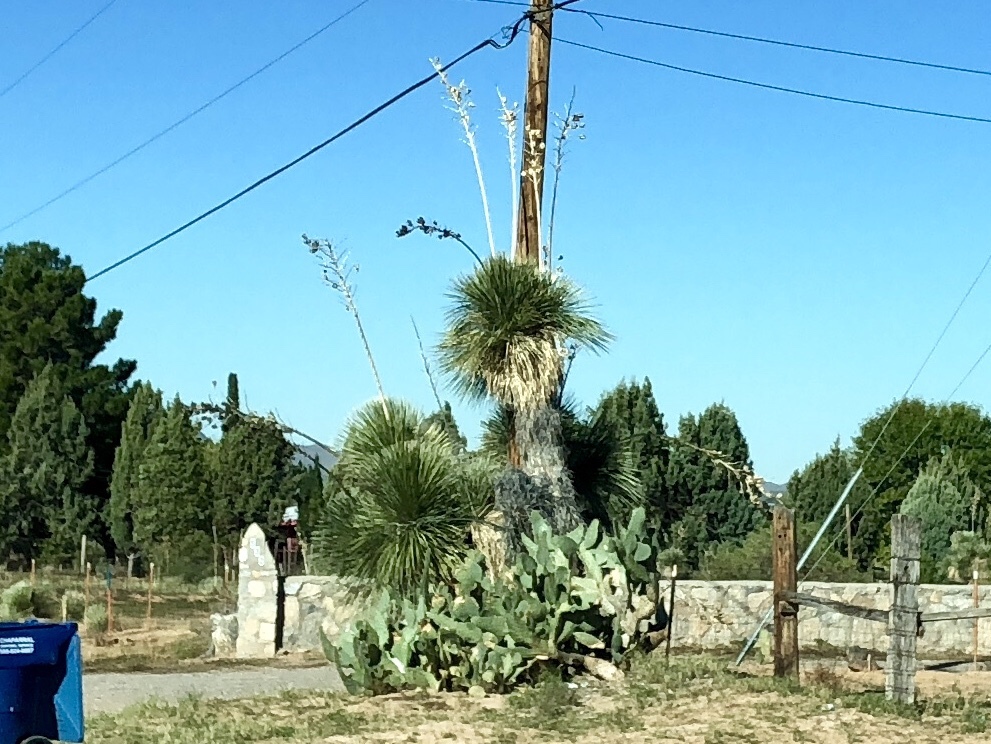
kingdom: Plantae
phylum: Tracheophyta
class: Liliopsida
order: Asparagales
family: Asparagaceae
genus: Yucca
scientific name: Yucca elata
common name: Palmella
